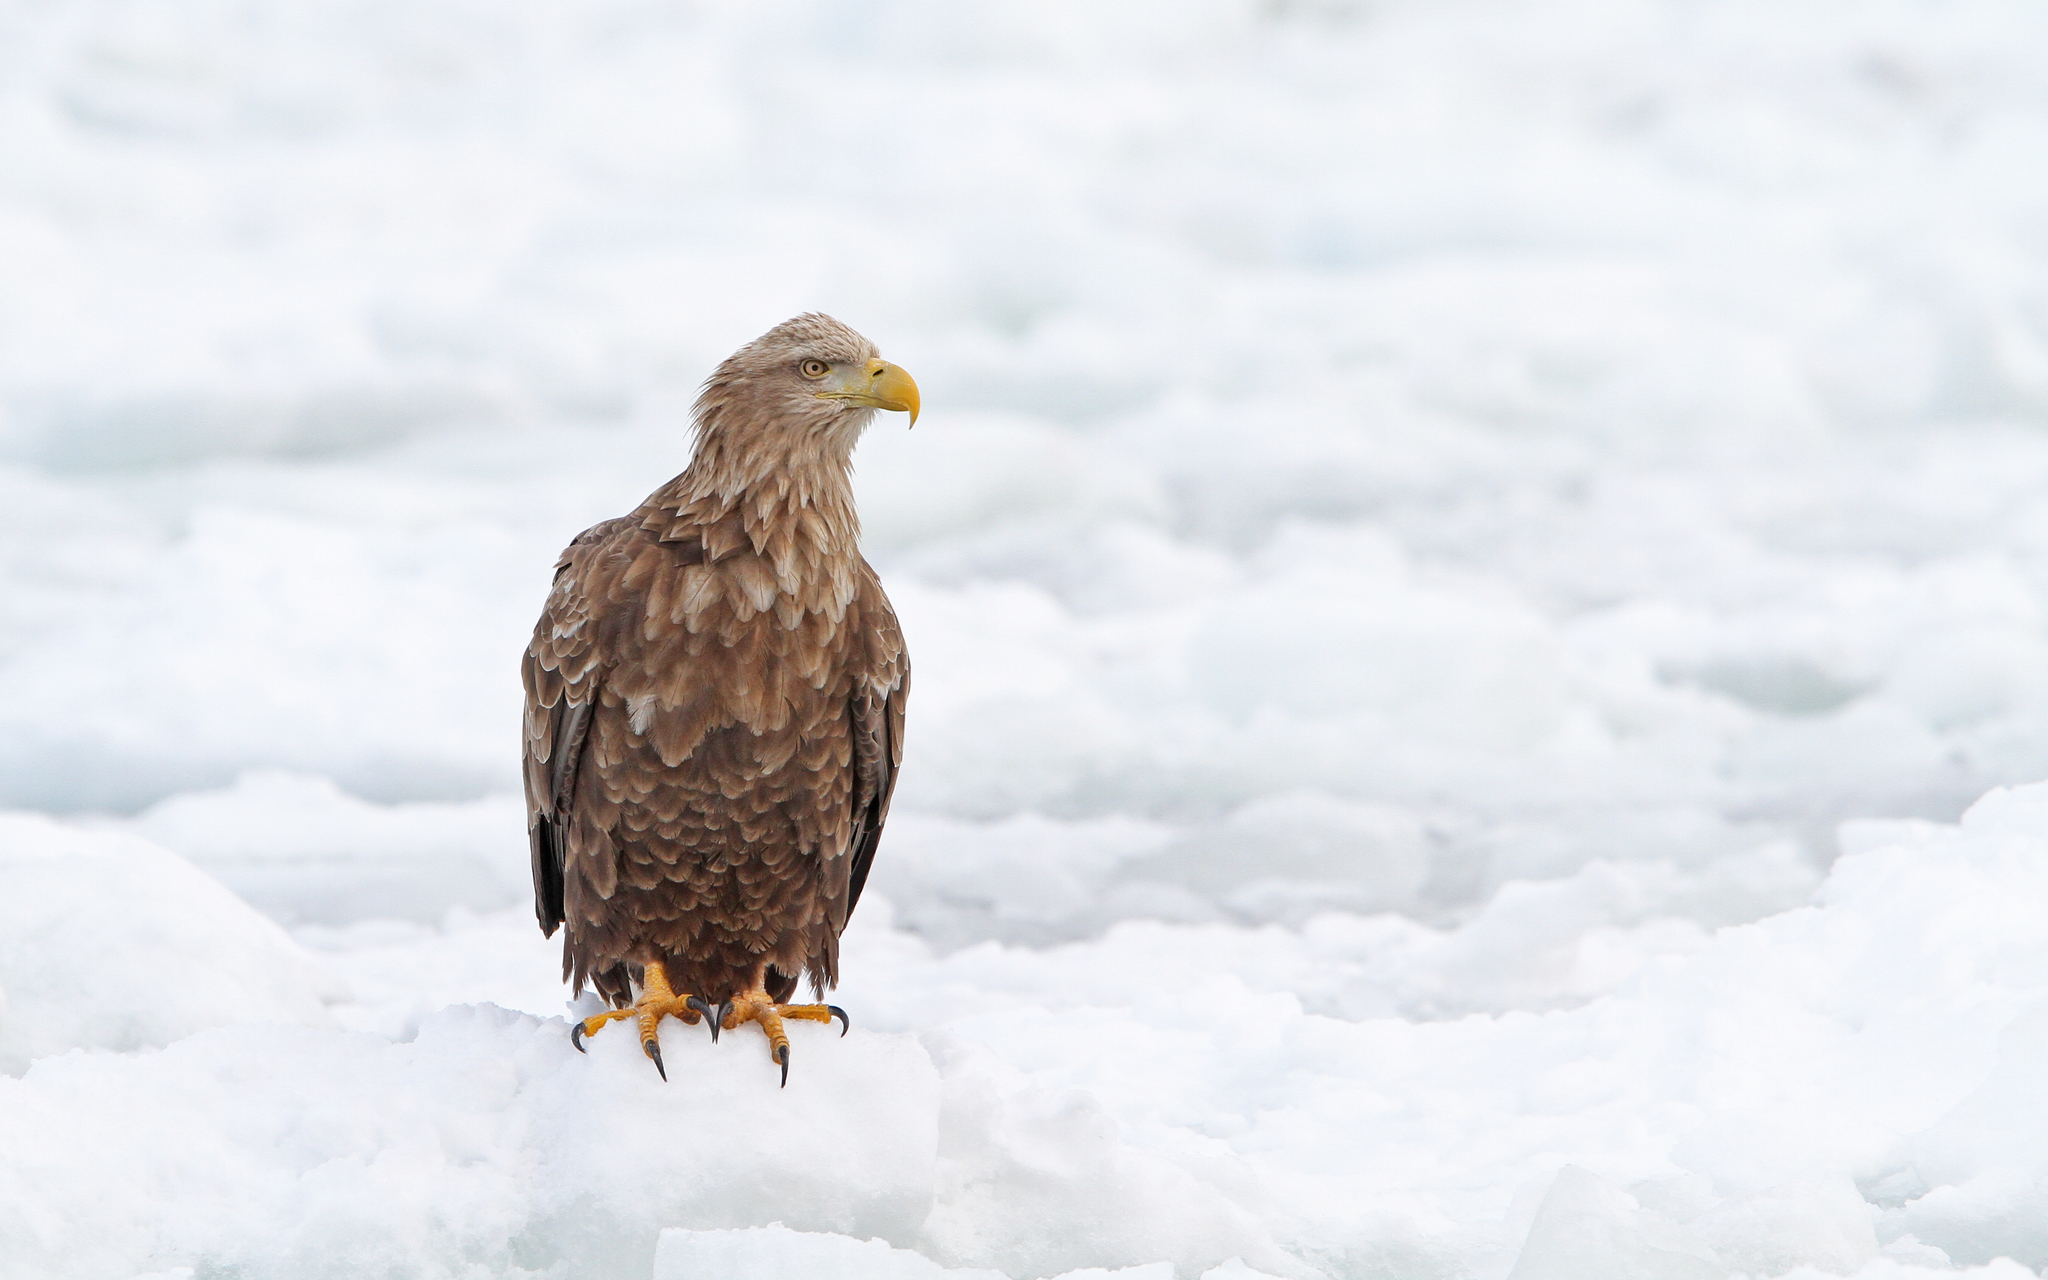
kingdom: Animalia
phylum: Chordata
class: Aves
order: Accipitriformes
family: Accipitridae
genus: Haliaeetus
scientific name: Haliaeetus albicilla
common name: White-tailed eagle
